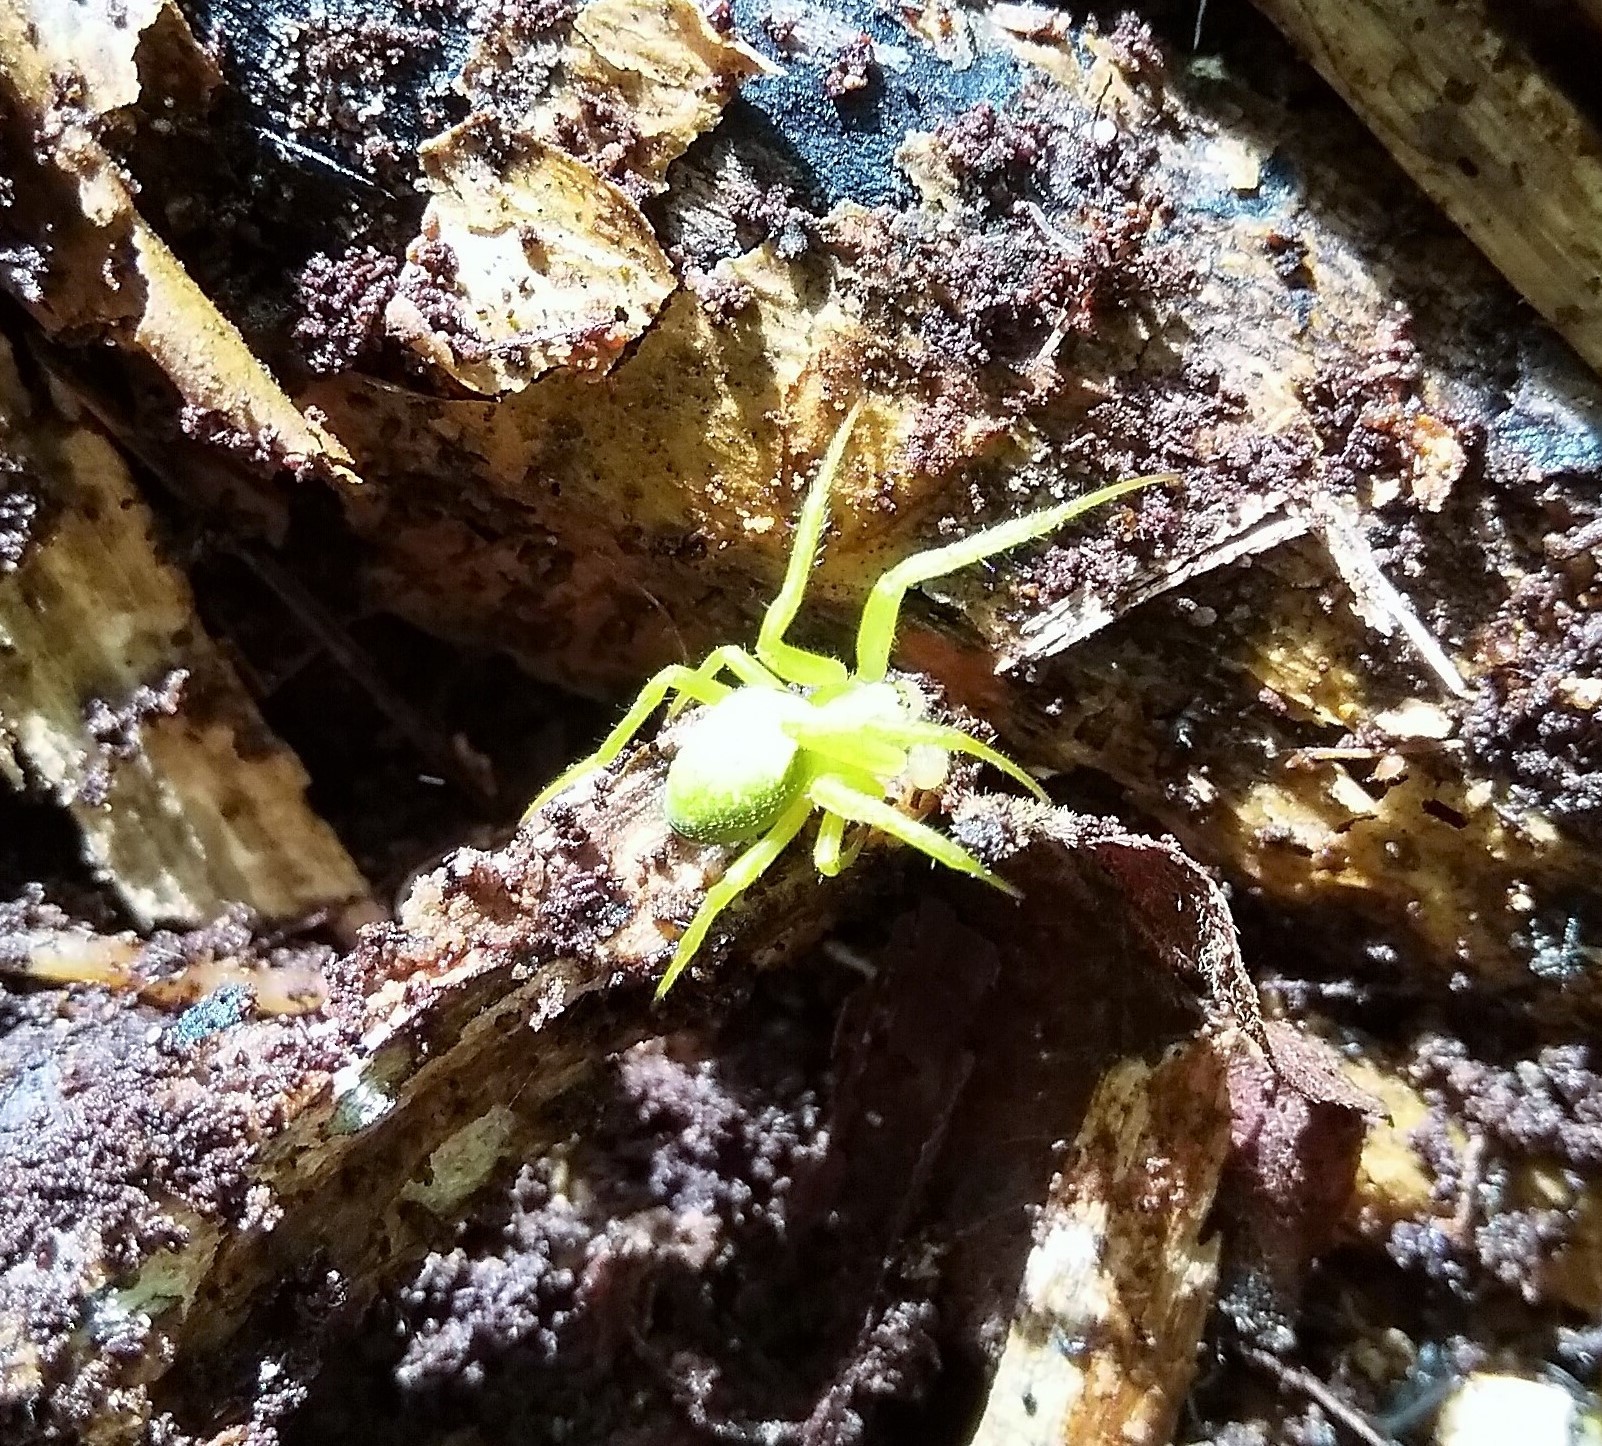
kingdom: Animalia
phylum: Arthropoda
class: Arachnida
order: Araneae
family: Araneidae
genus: Colaranea
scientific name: Colaranea viriditas
